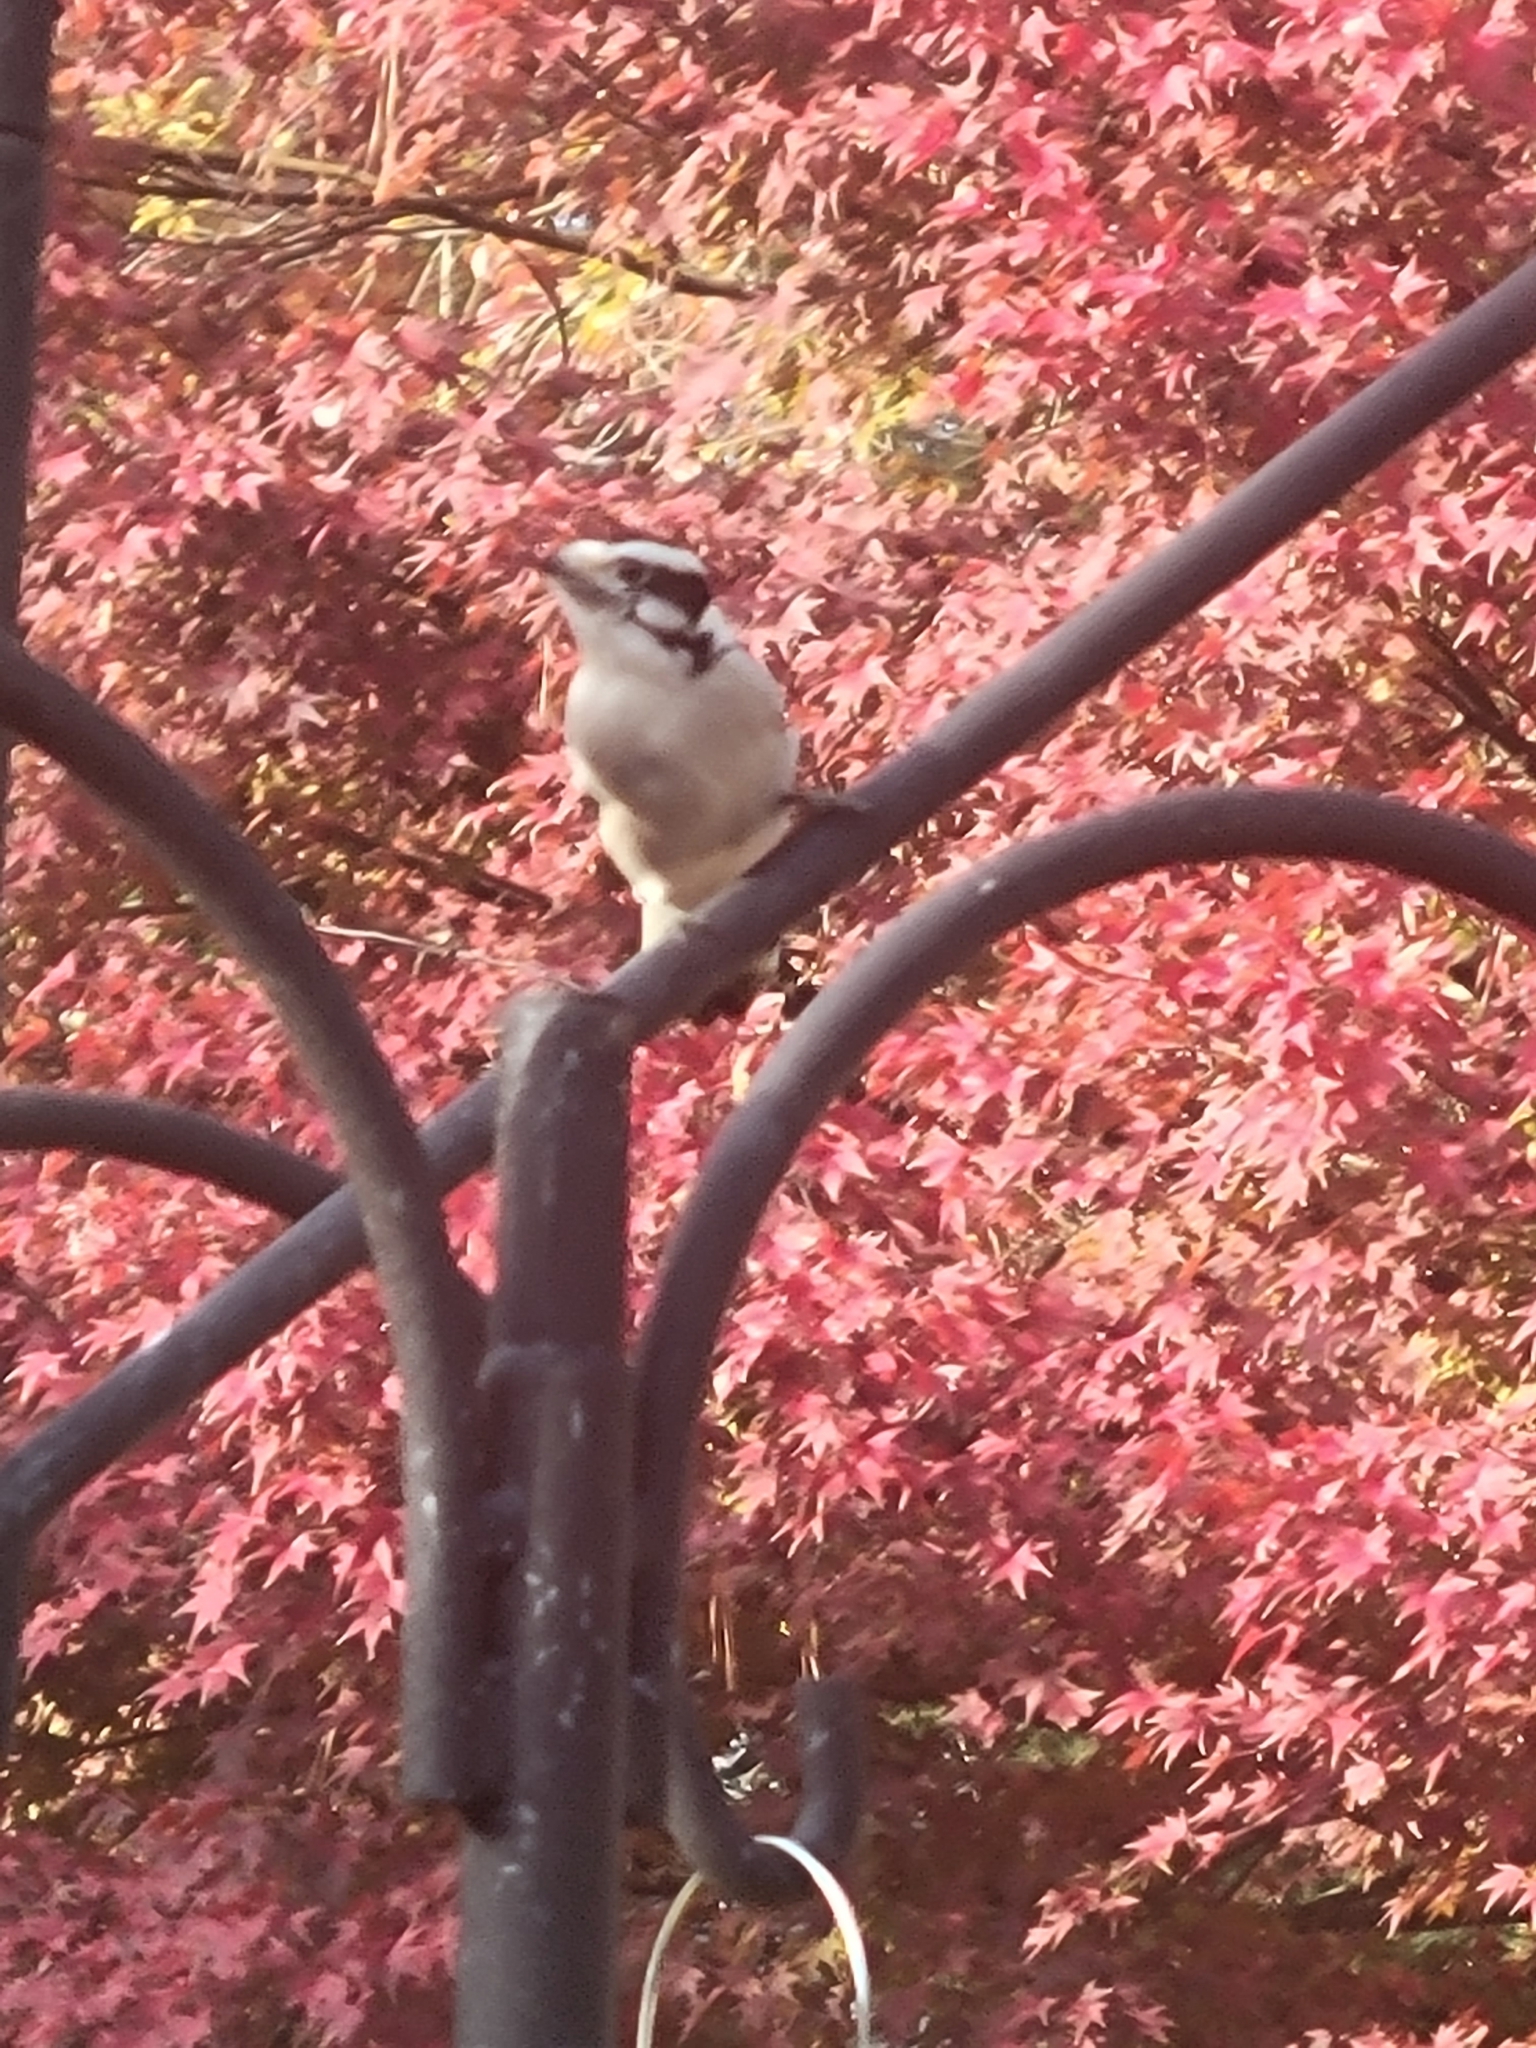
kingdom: Animalia
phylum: Chordata
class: Aves
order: Piciformes
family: Picidae
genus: Dryobates
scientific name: Dryobates pubescens
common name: Downy woodpecker
